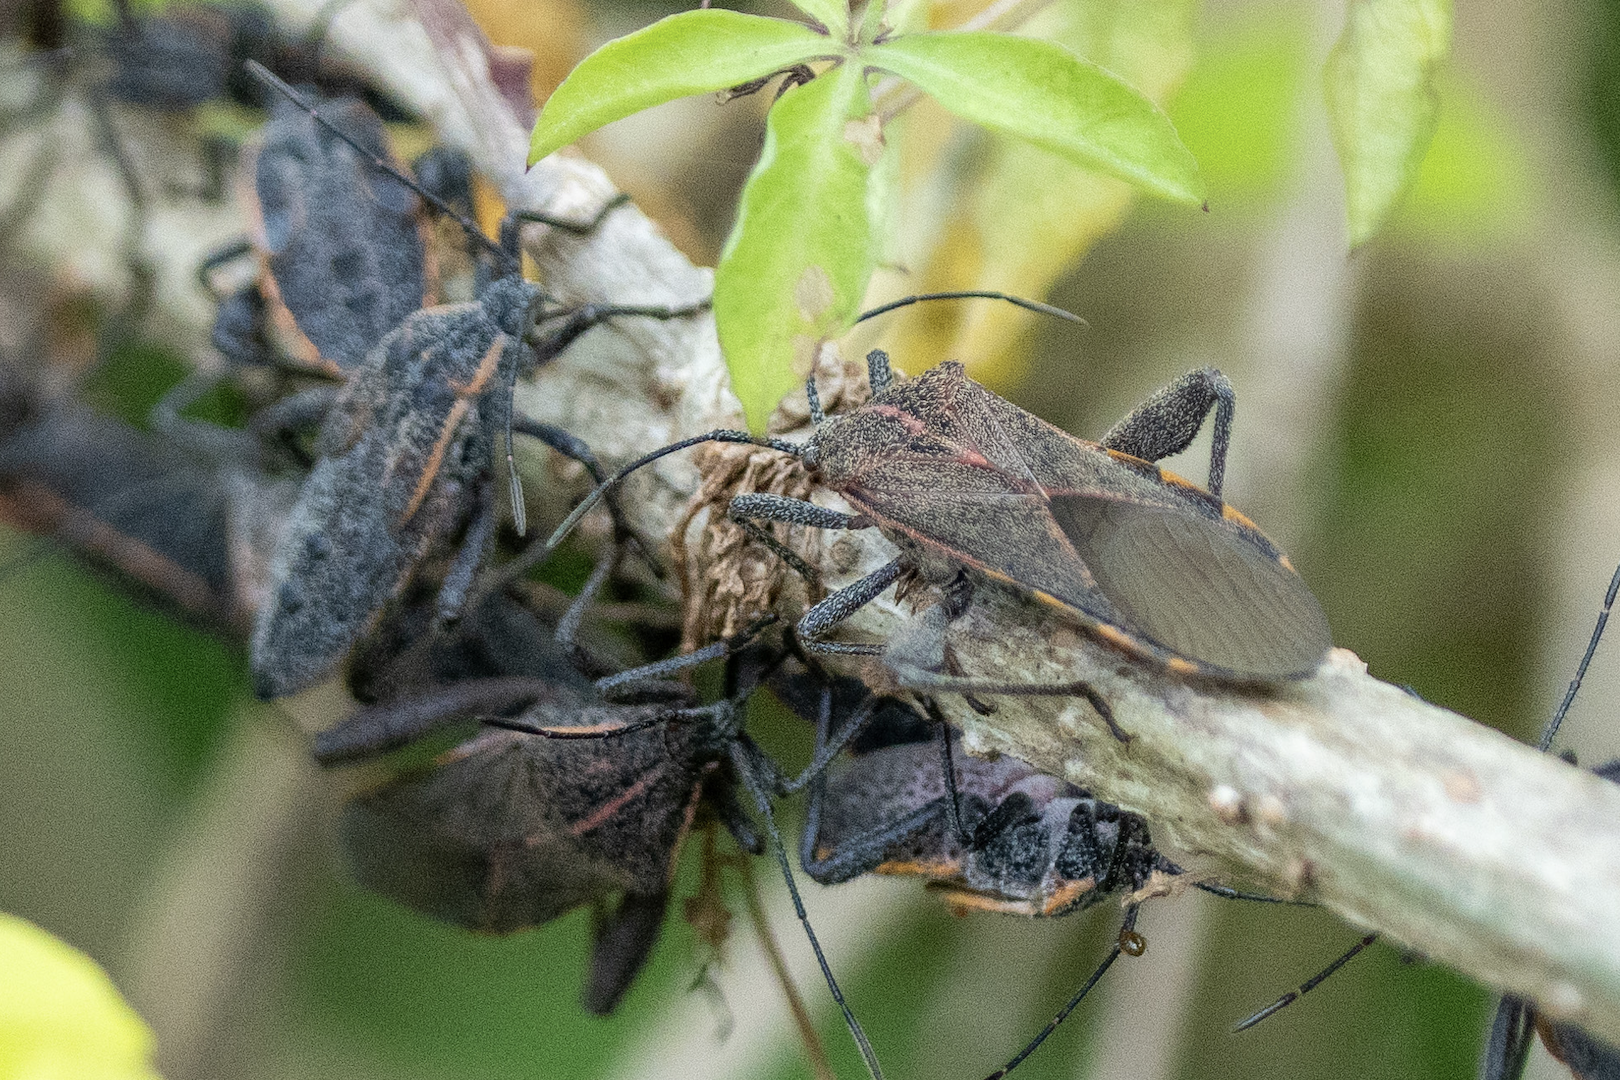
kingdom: Animalia
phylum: Arthropoda
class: Insecta
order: Hemiptera
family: Coreidae
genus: Physomerus
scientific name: Physomerus grossipes
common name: Squash bug
